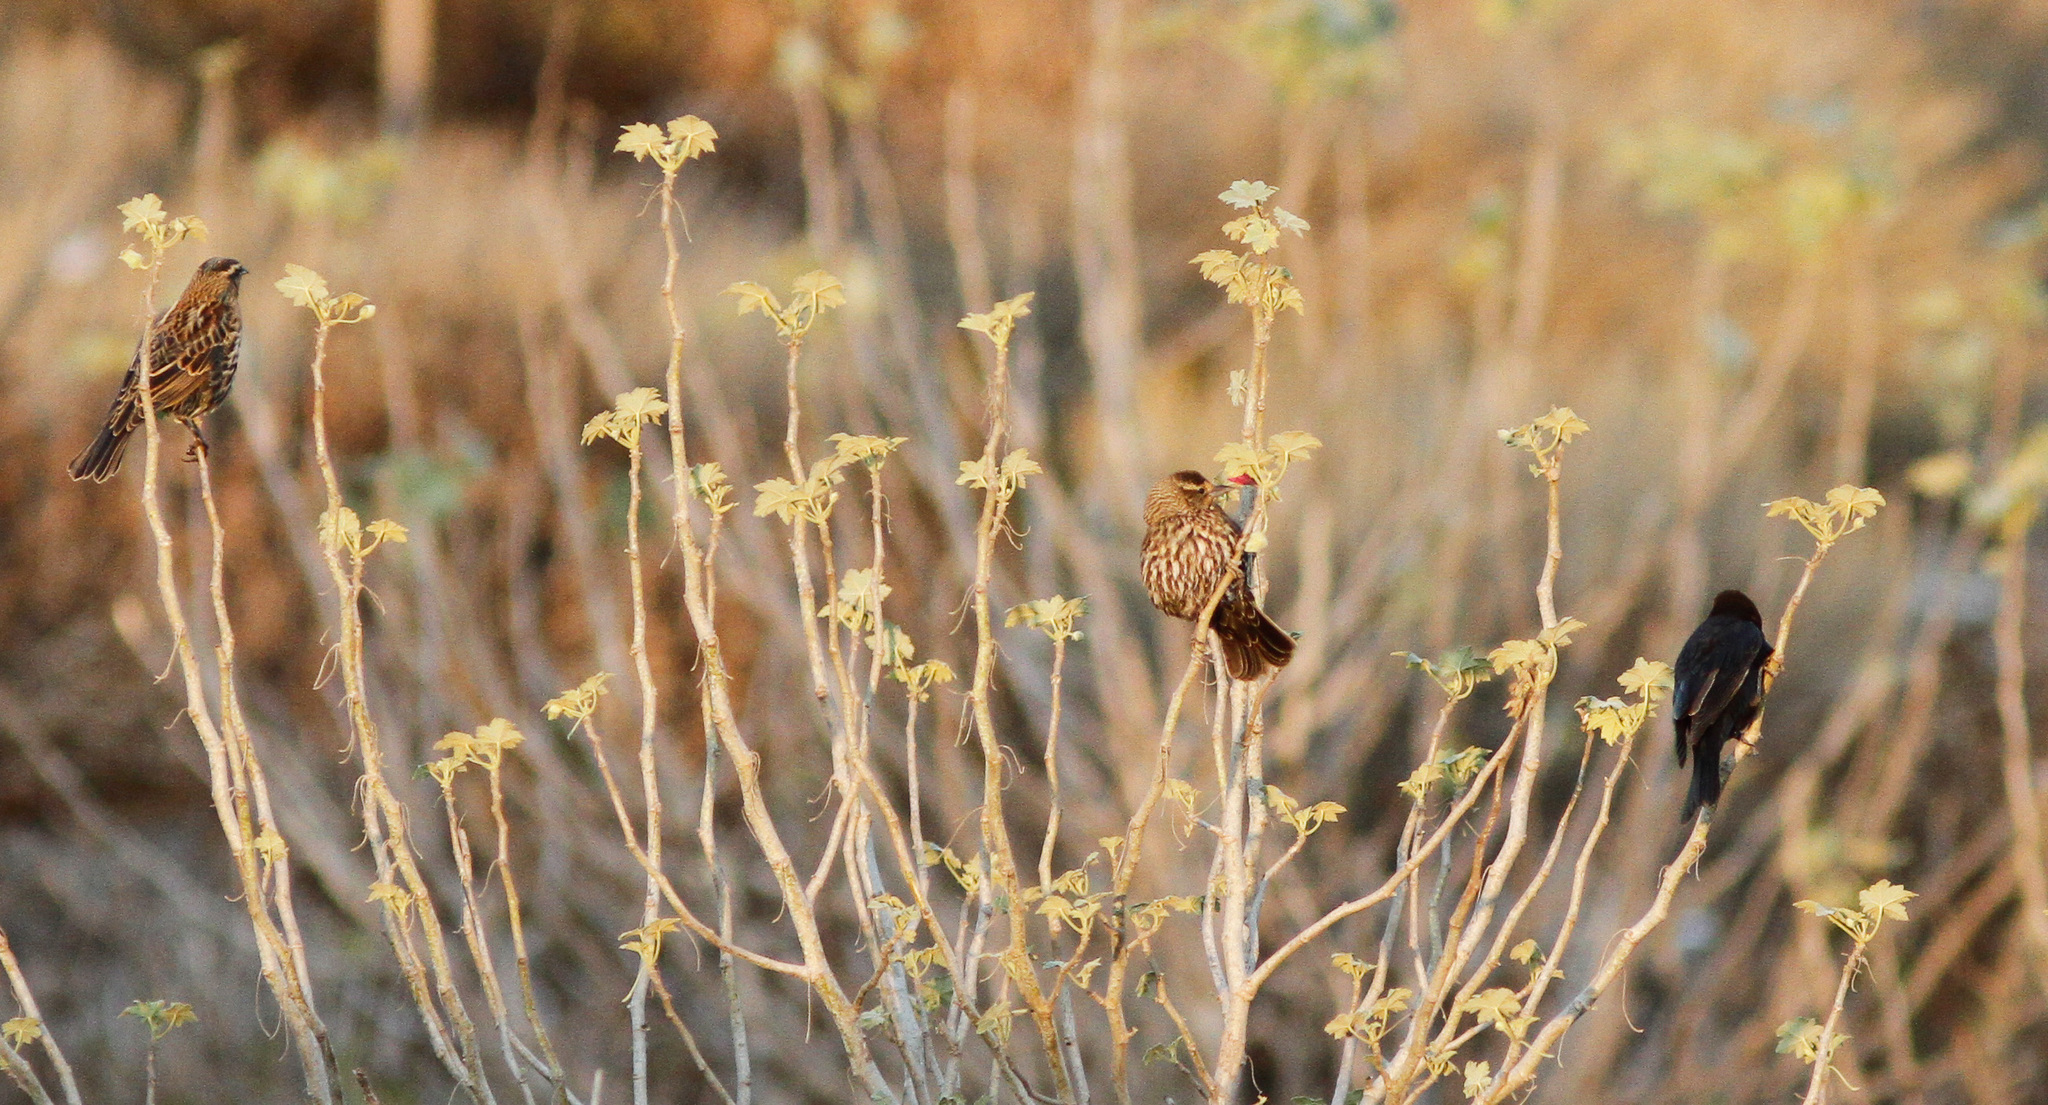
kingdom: Animalia
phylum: Chordata
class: Aves
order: Passeriformes
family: Icteridae
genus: Agelaius
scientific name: Agelaius phoeniceus
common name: Red-winged blackbird
